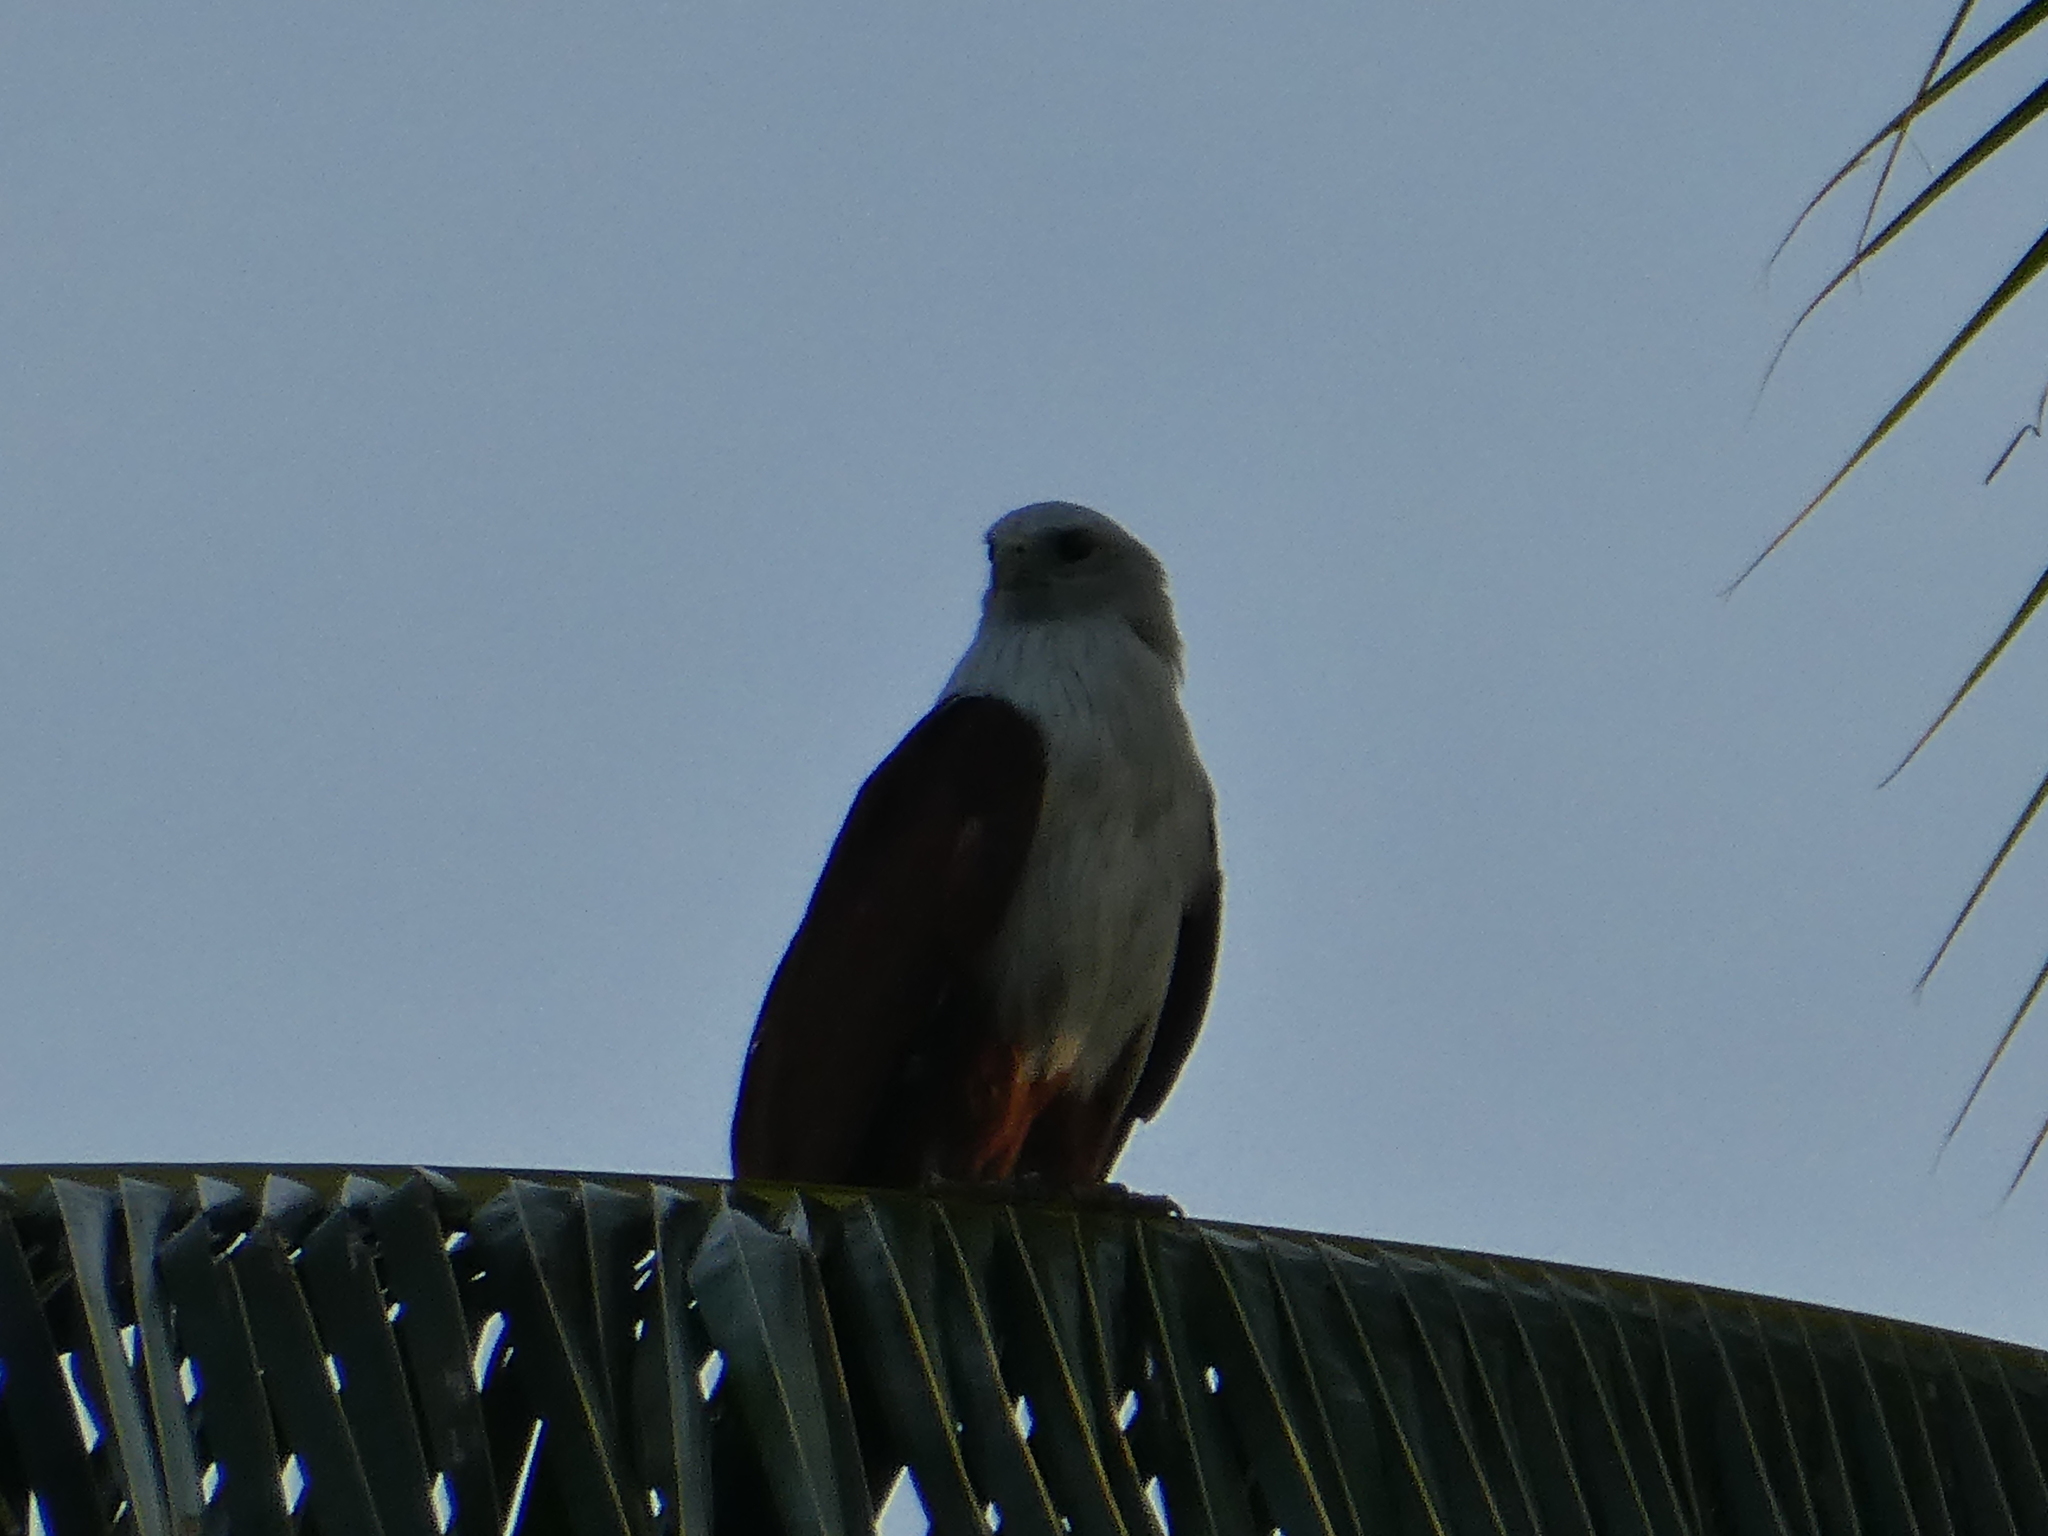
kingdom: Animalia
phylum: Chordata
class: Aves
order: Accipitriformes
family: Accipitridae
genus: Haliastur
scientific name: Haliastur indus
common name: Brahminy kite
